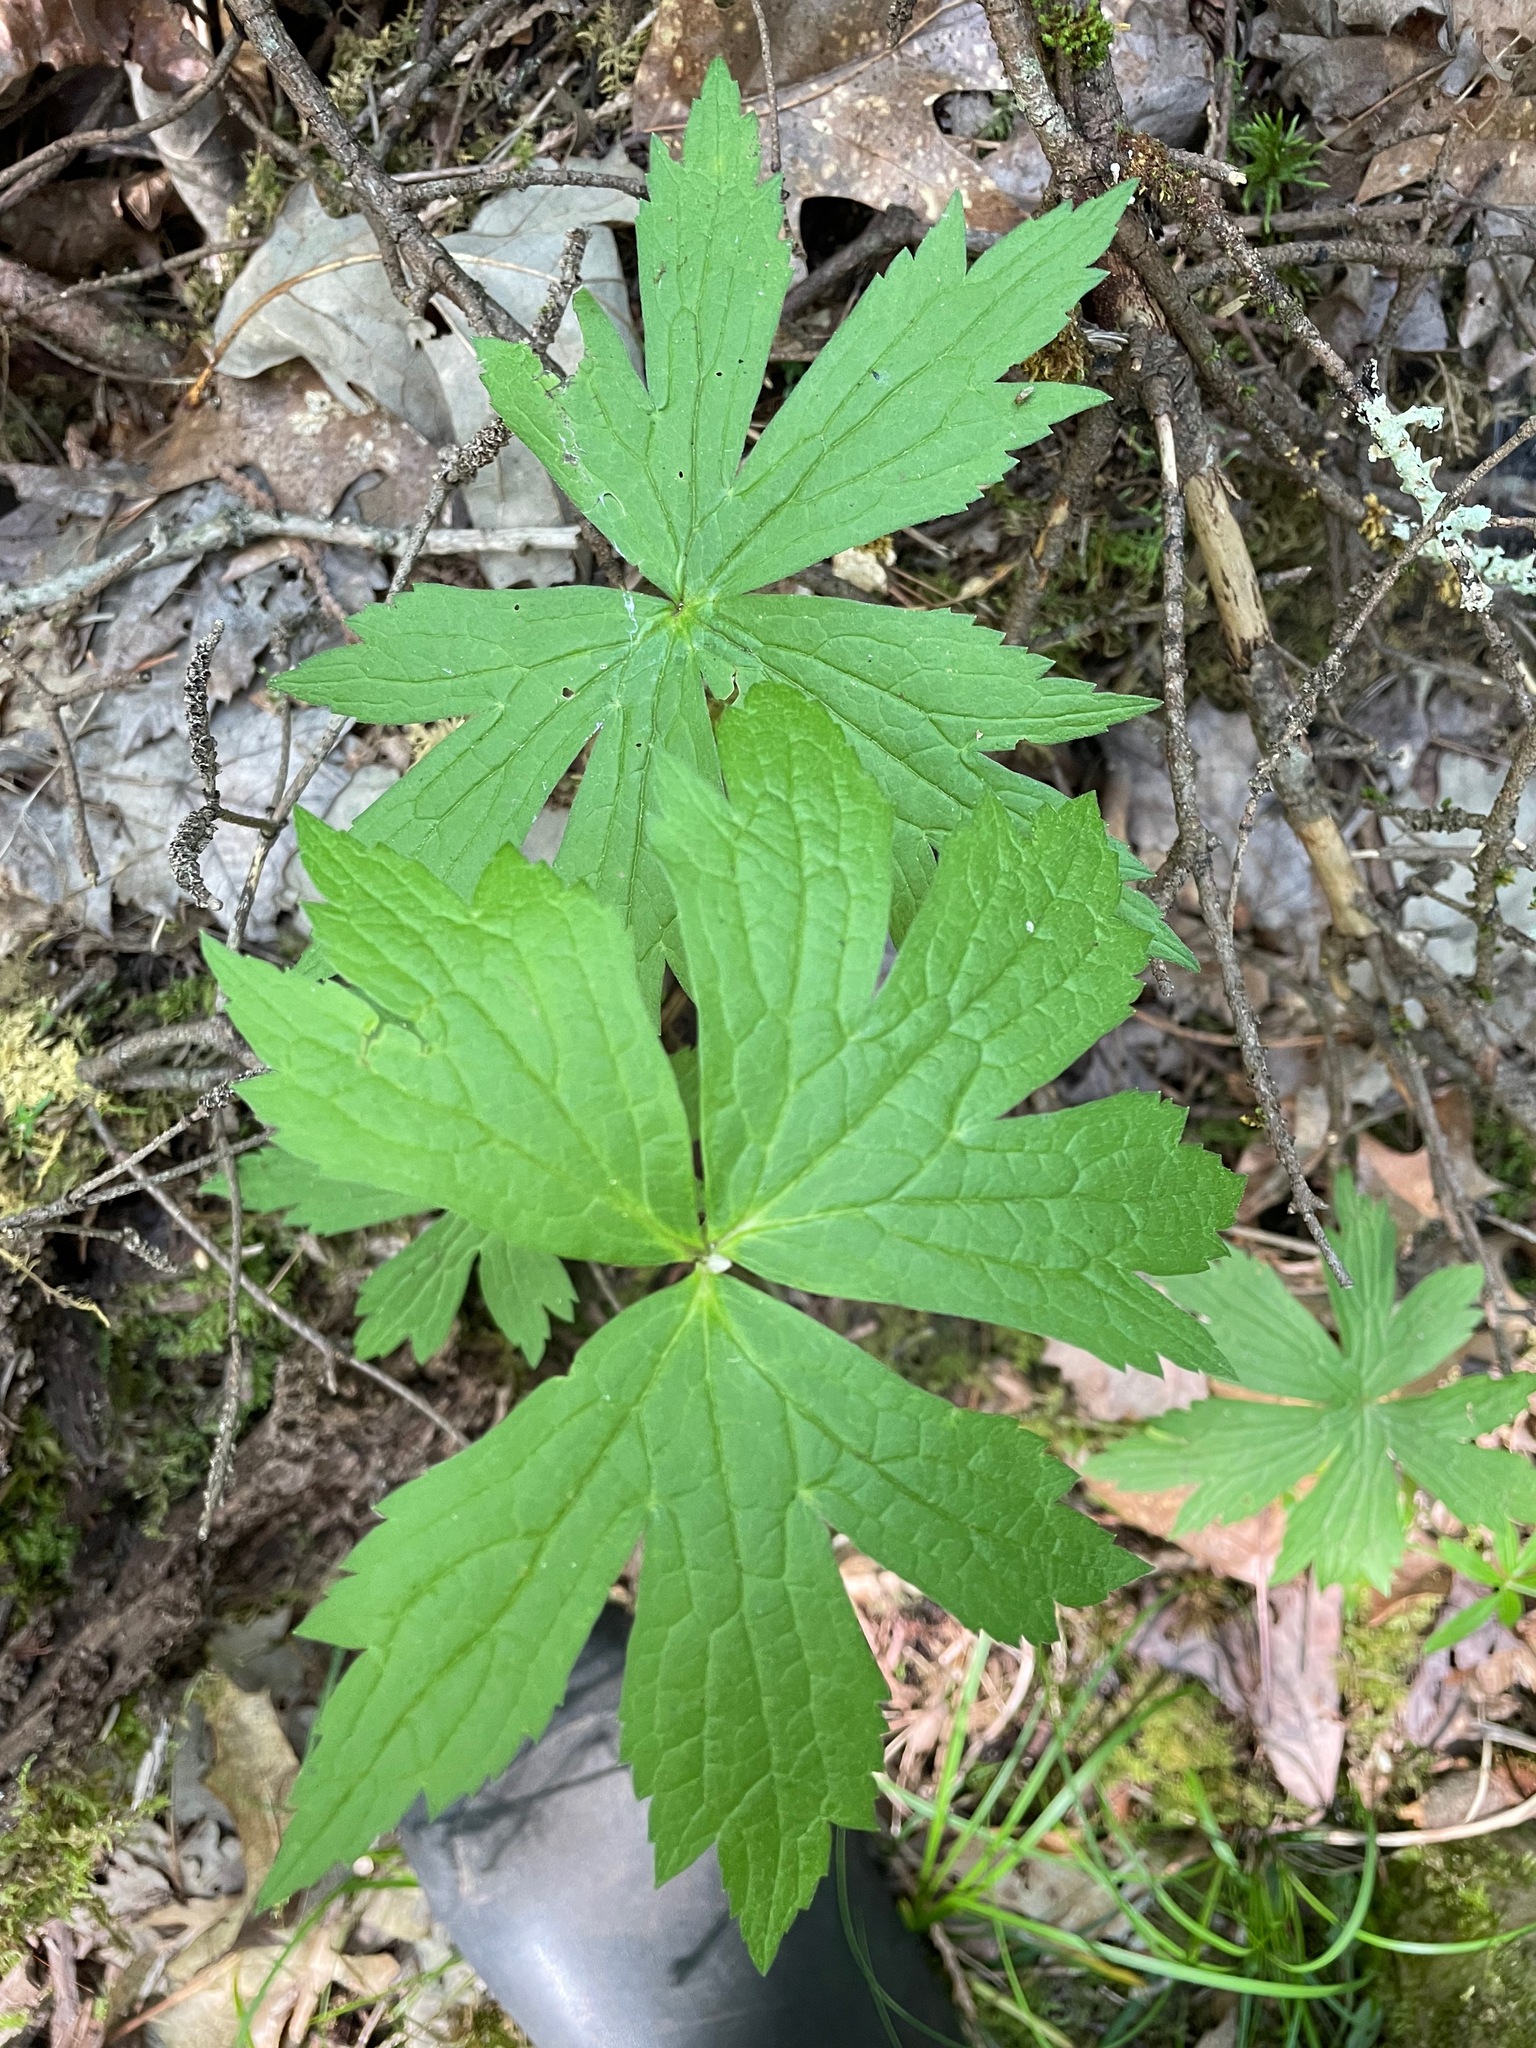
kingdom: Plantae
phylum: Tracheophyta
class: Magnoliopsida
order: Ranunculales
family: Ranunculaceae
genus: Anemonastrum
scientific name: Anemonastrum canadense
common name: Canada anemone
